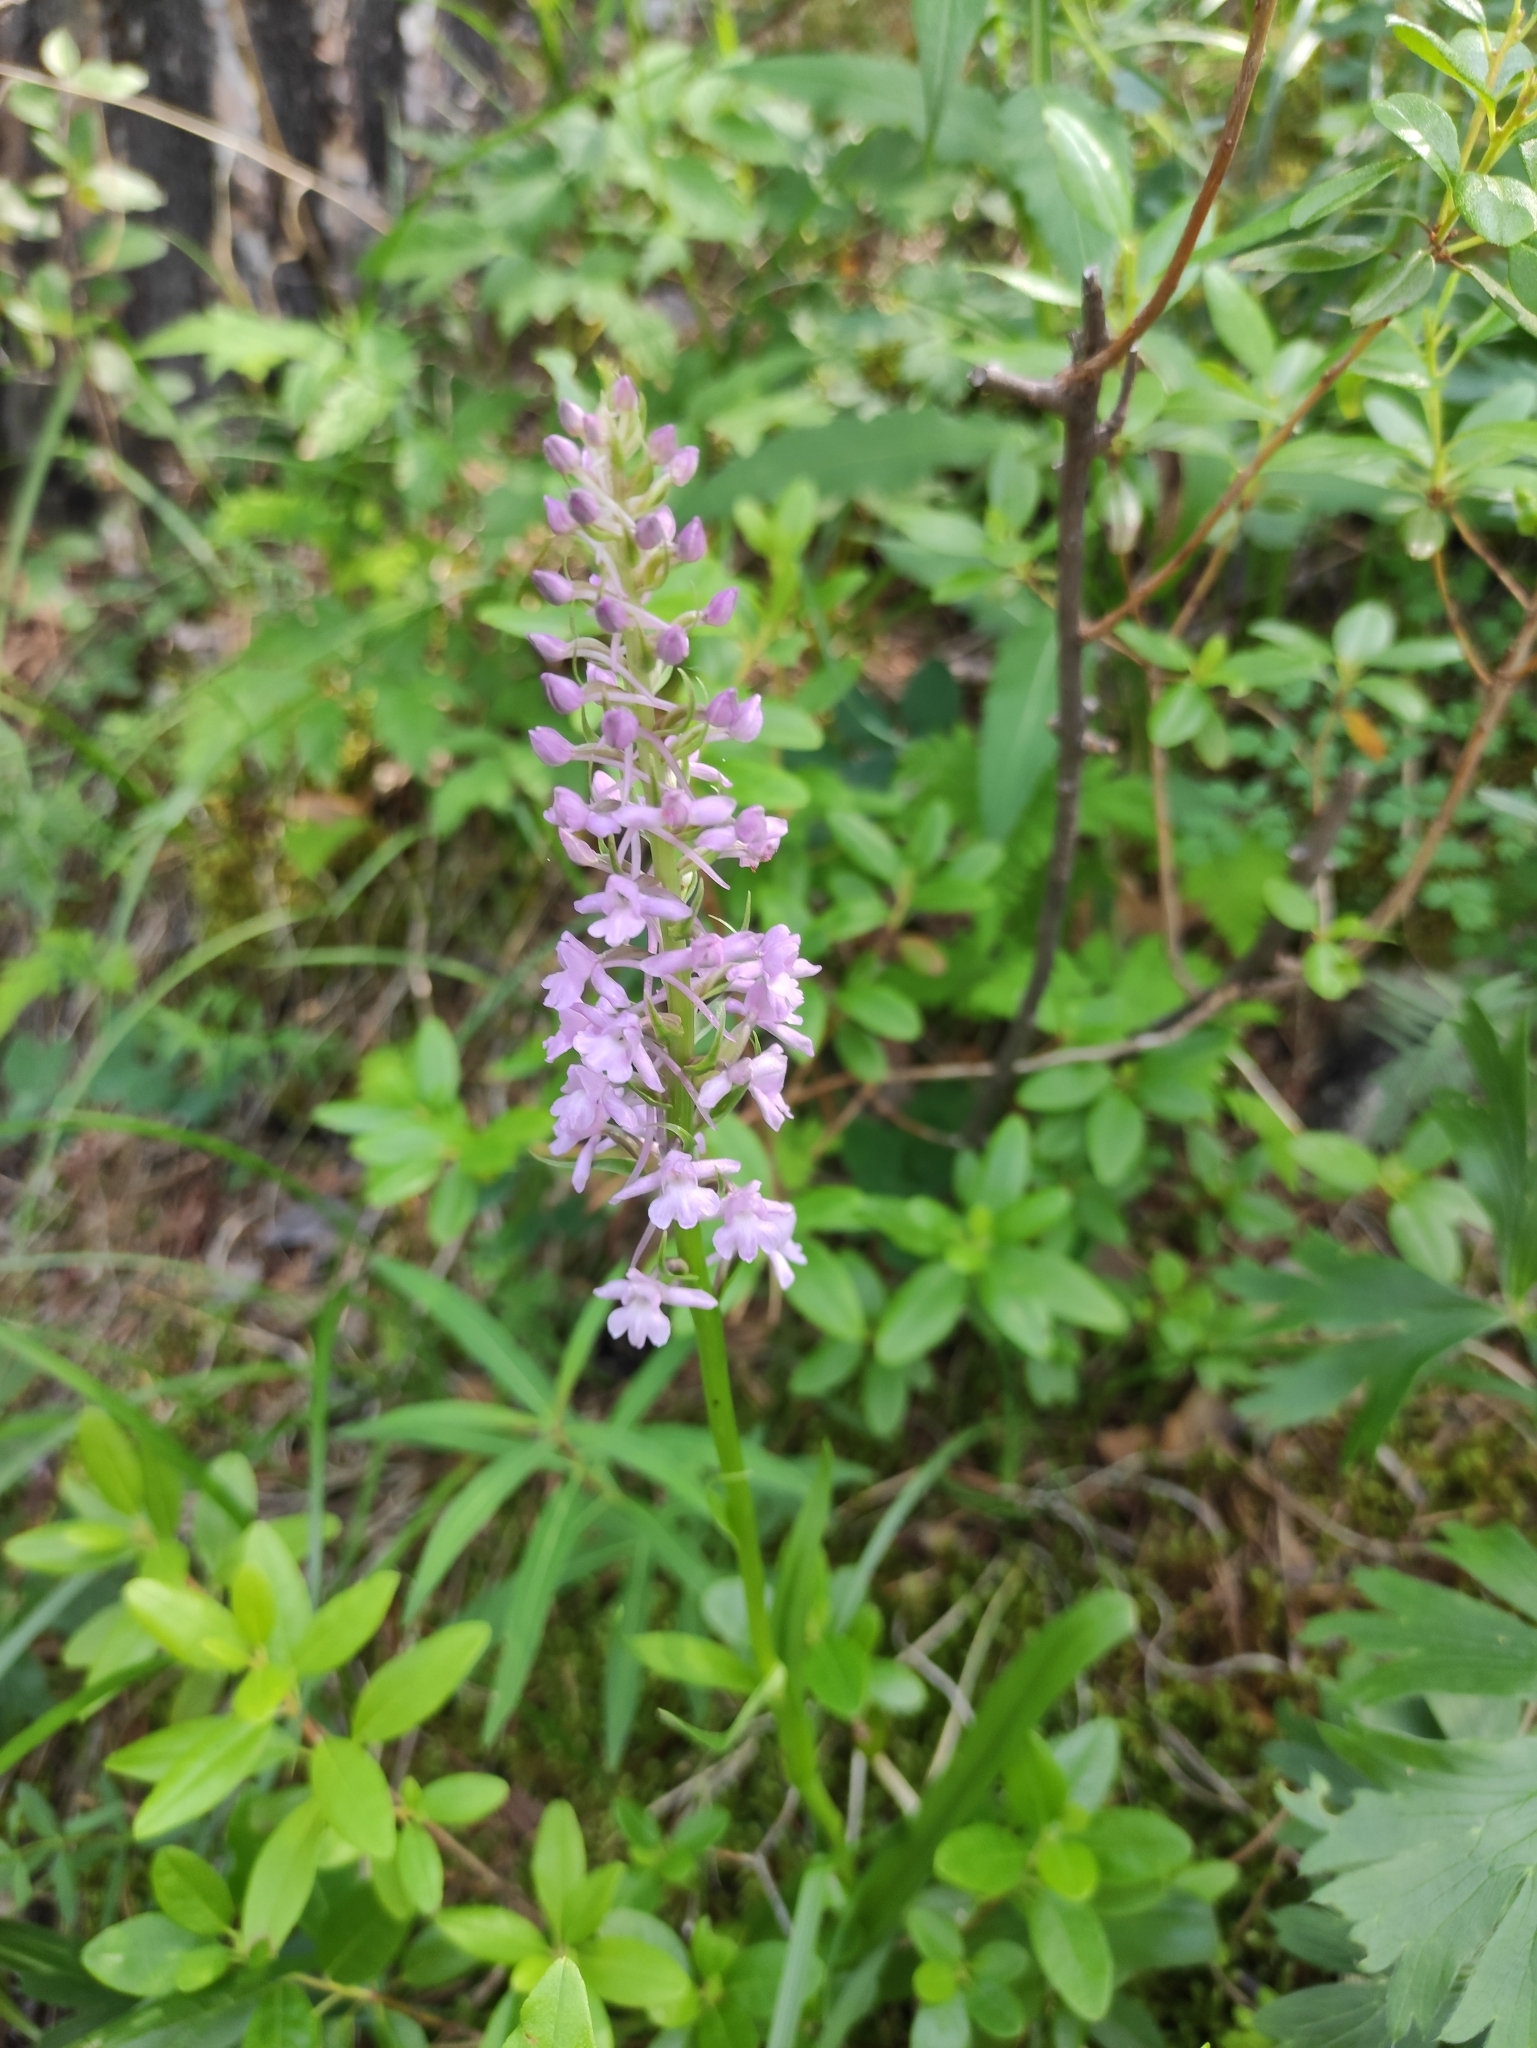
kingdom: Plantae
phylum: Tracheophyta
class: Liliopsida
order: Asparagales
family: Orchidaceae
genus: Gymnadenia
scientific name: Gymnadenia conopsea
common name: Fragrant orchid
